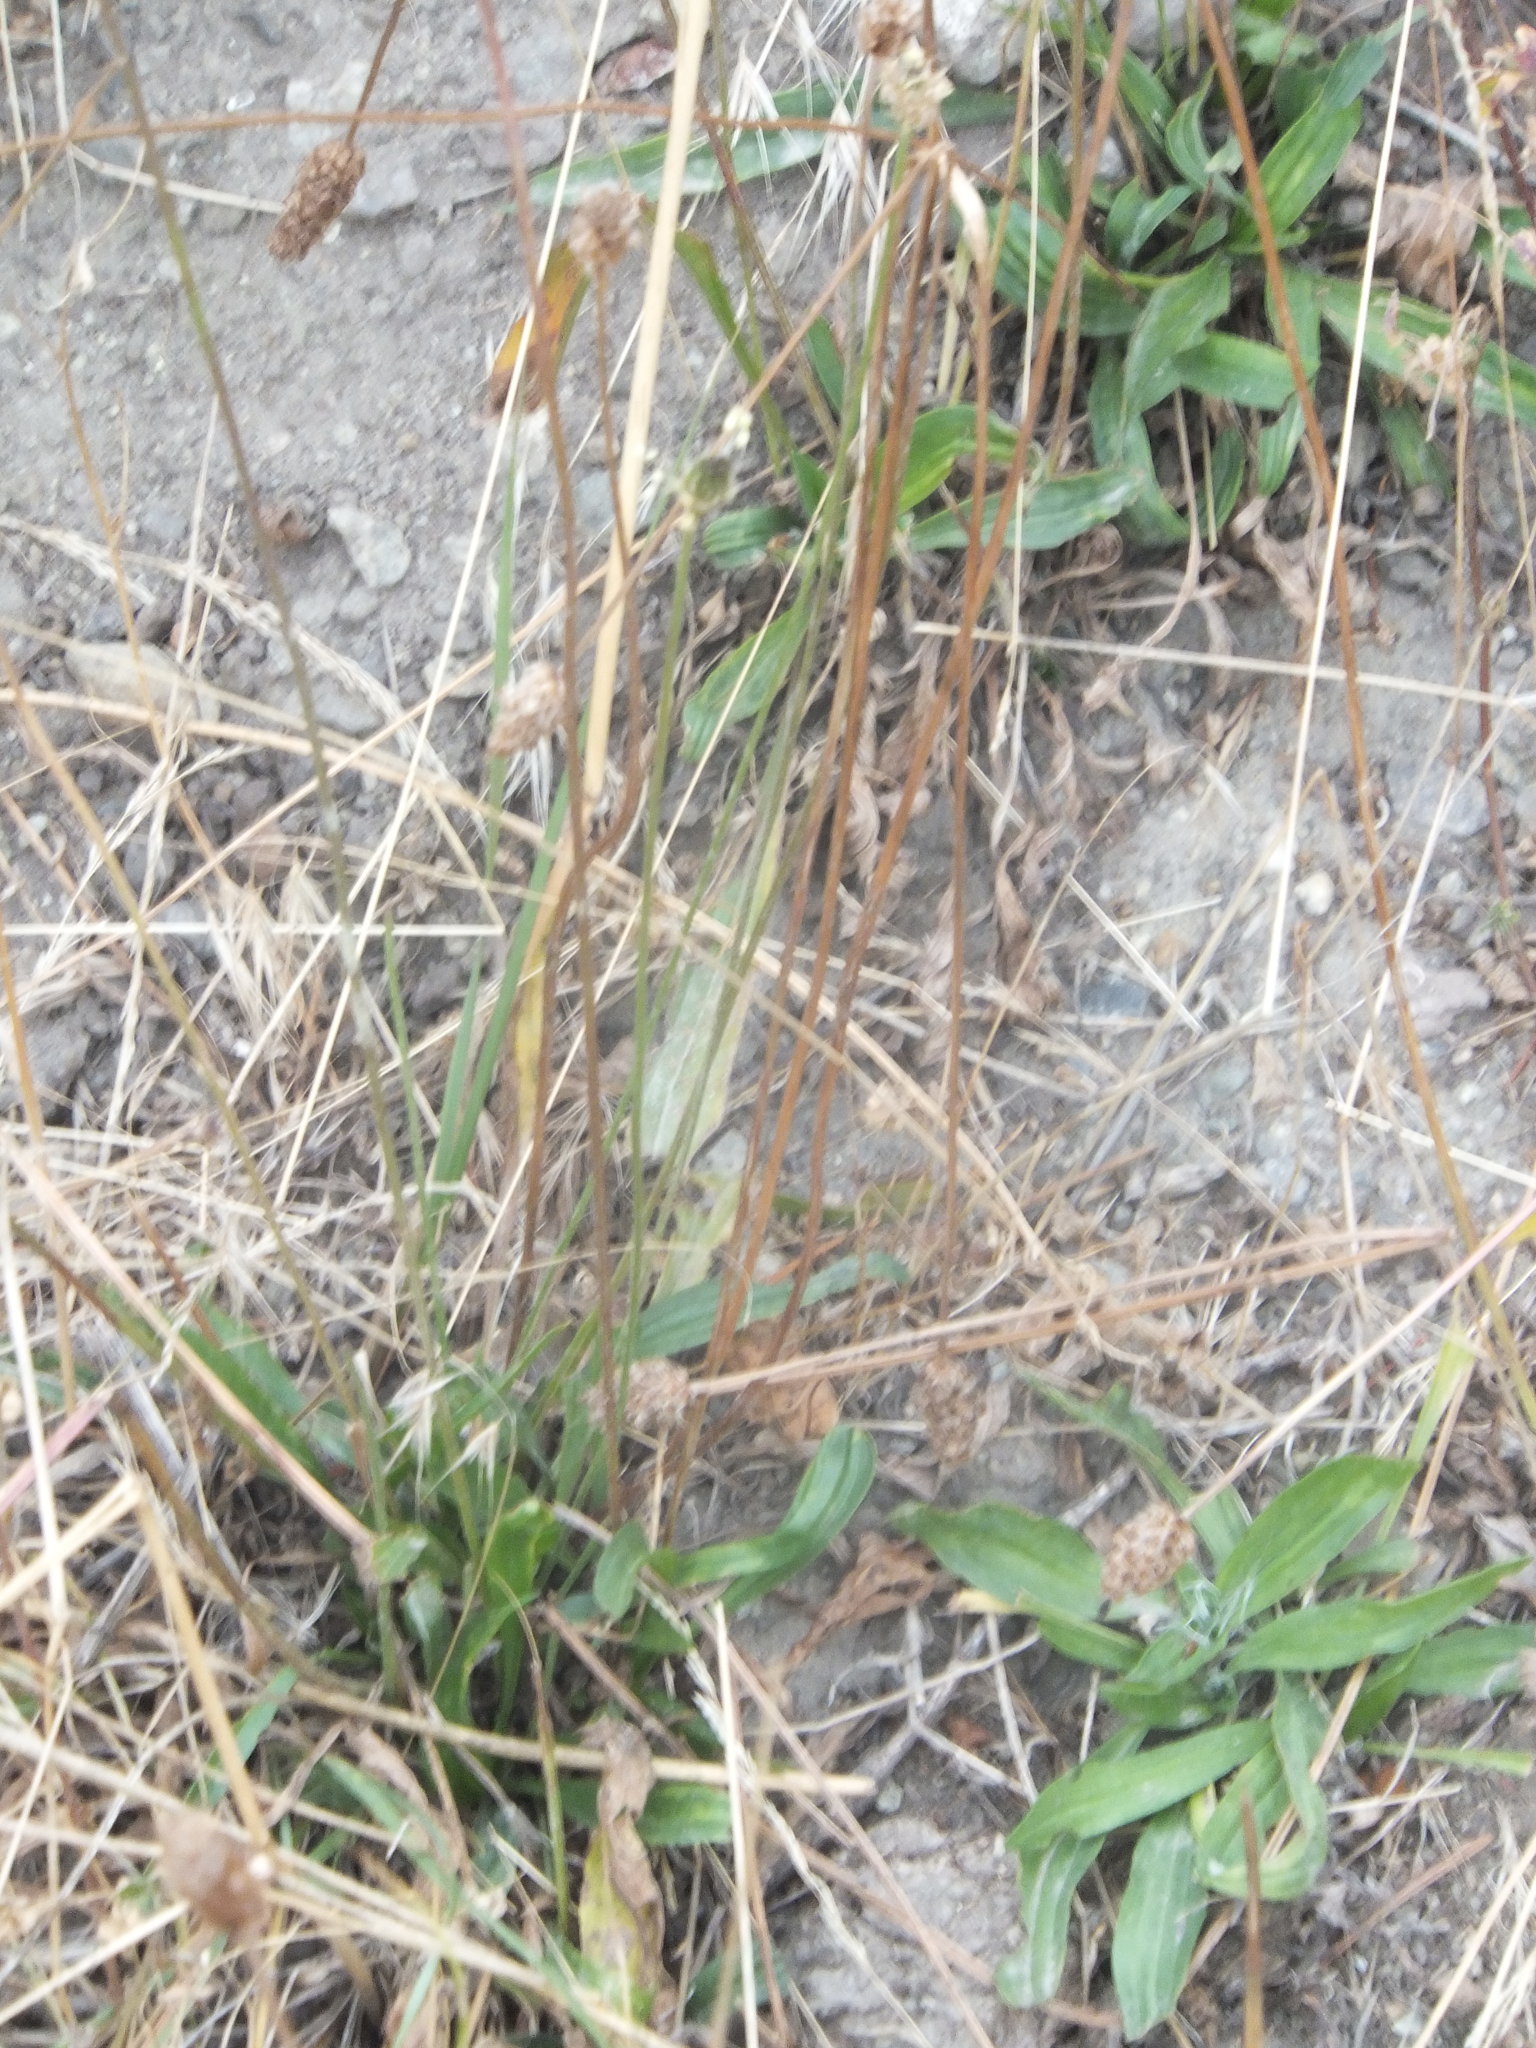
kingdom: Plantae
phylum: Tracheophyta
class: Magnoliopsida
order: Lamiales
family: Plantaginaceae
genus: Plantago
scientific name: Plantago lanceolata
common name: Ribwort plantain
